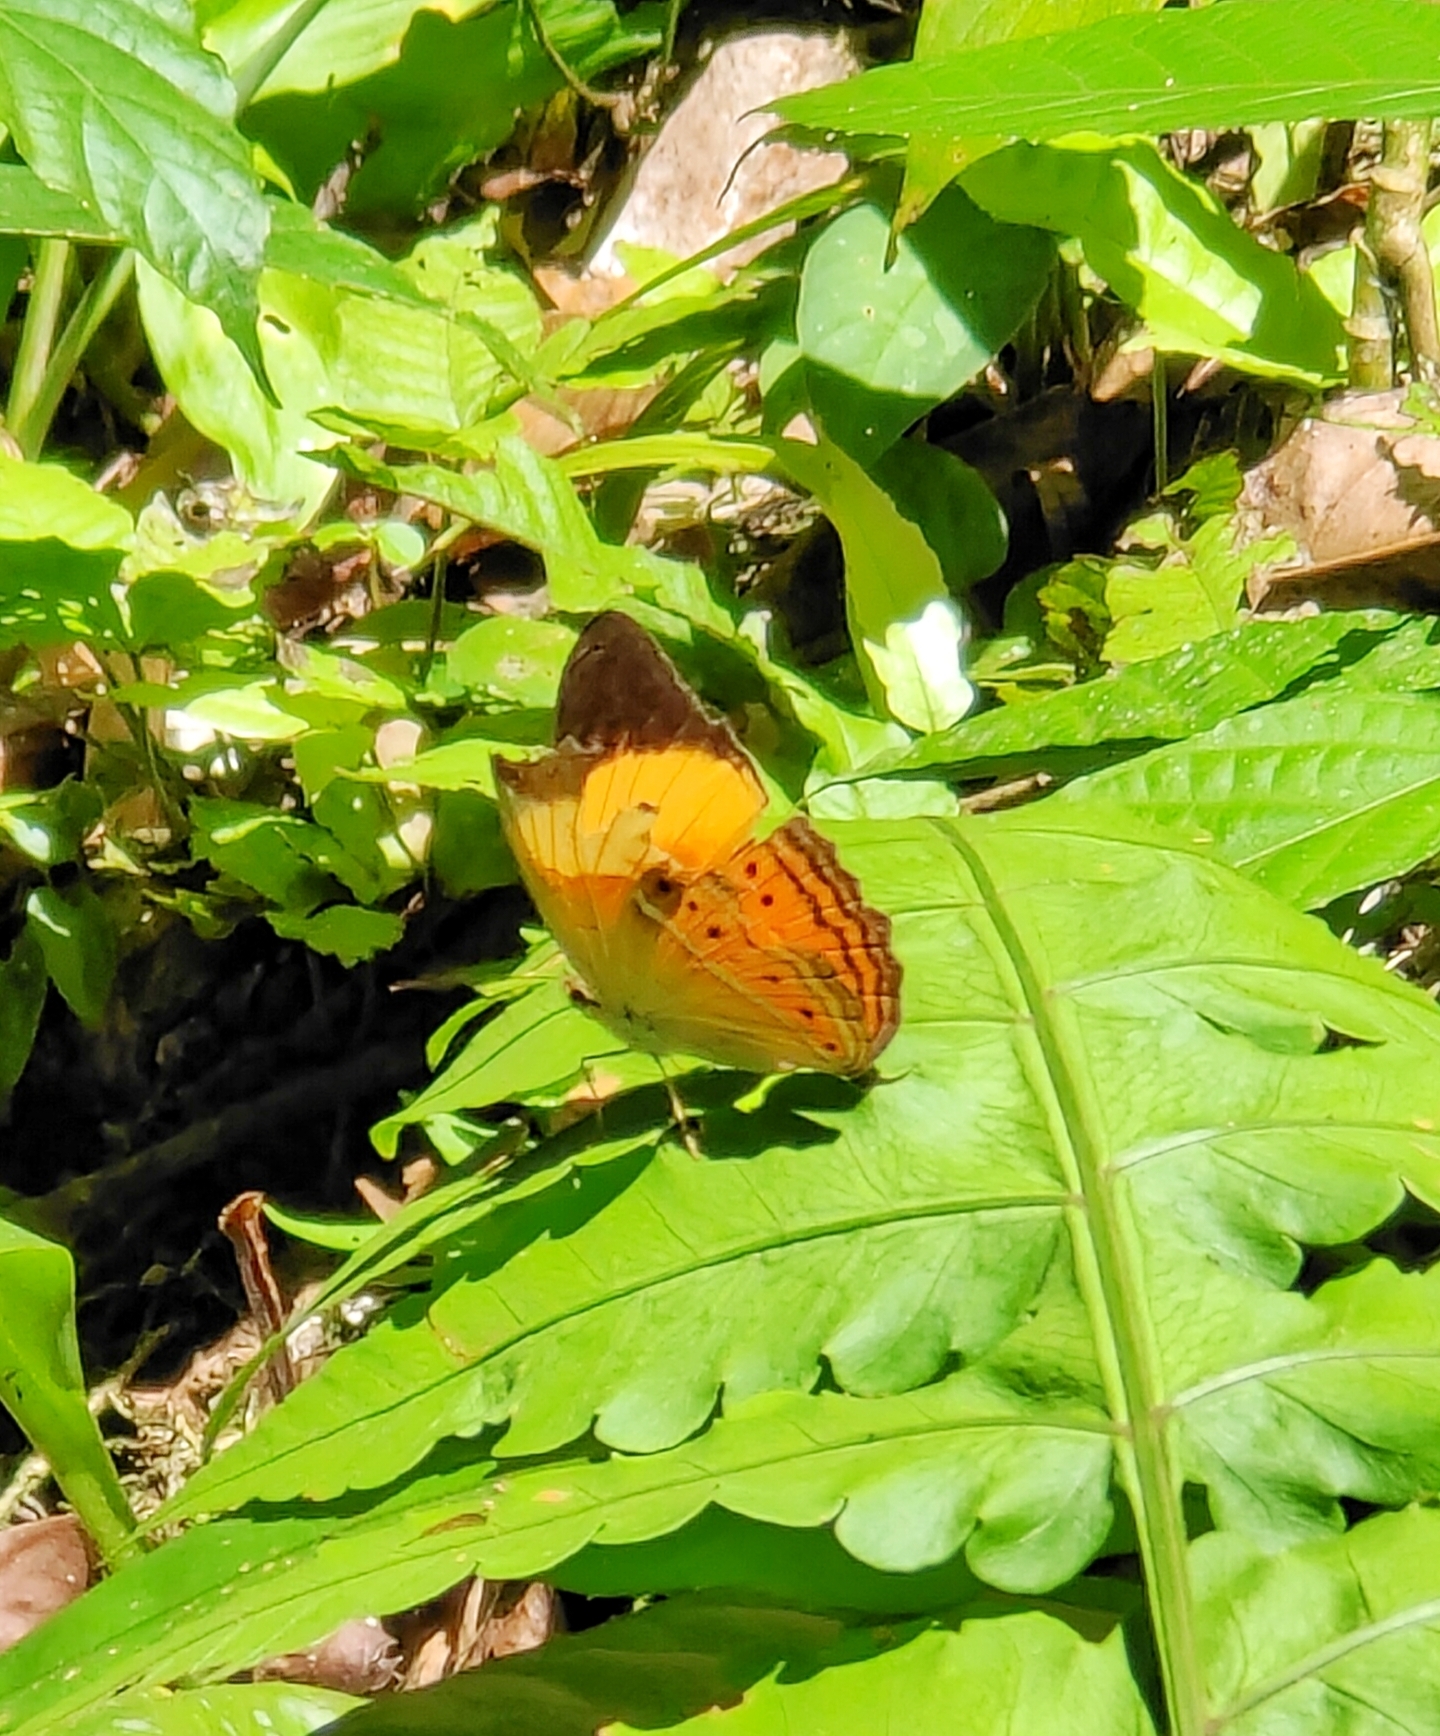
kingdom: Animalia
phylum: Arthropoda
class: Insecta
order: Lepidoptera
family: Nymphalidae
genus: Cirrochroa
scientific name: Cirrochroa orissa
